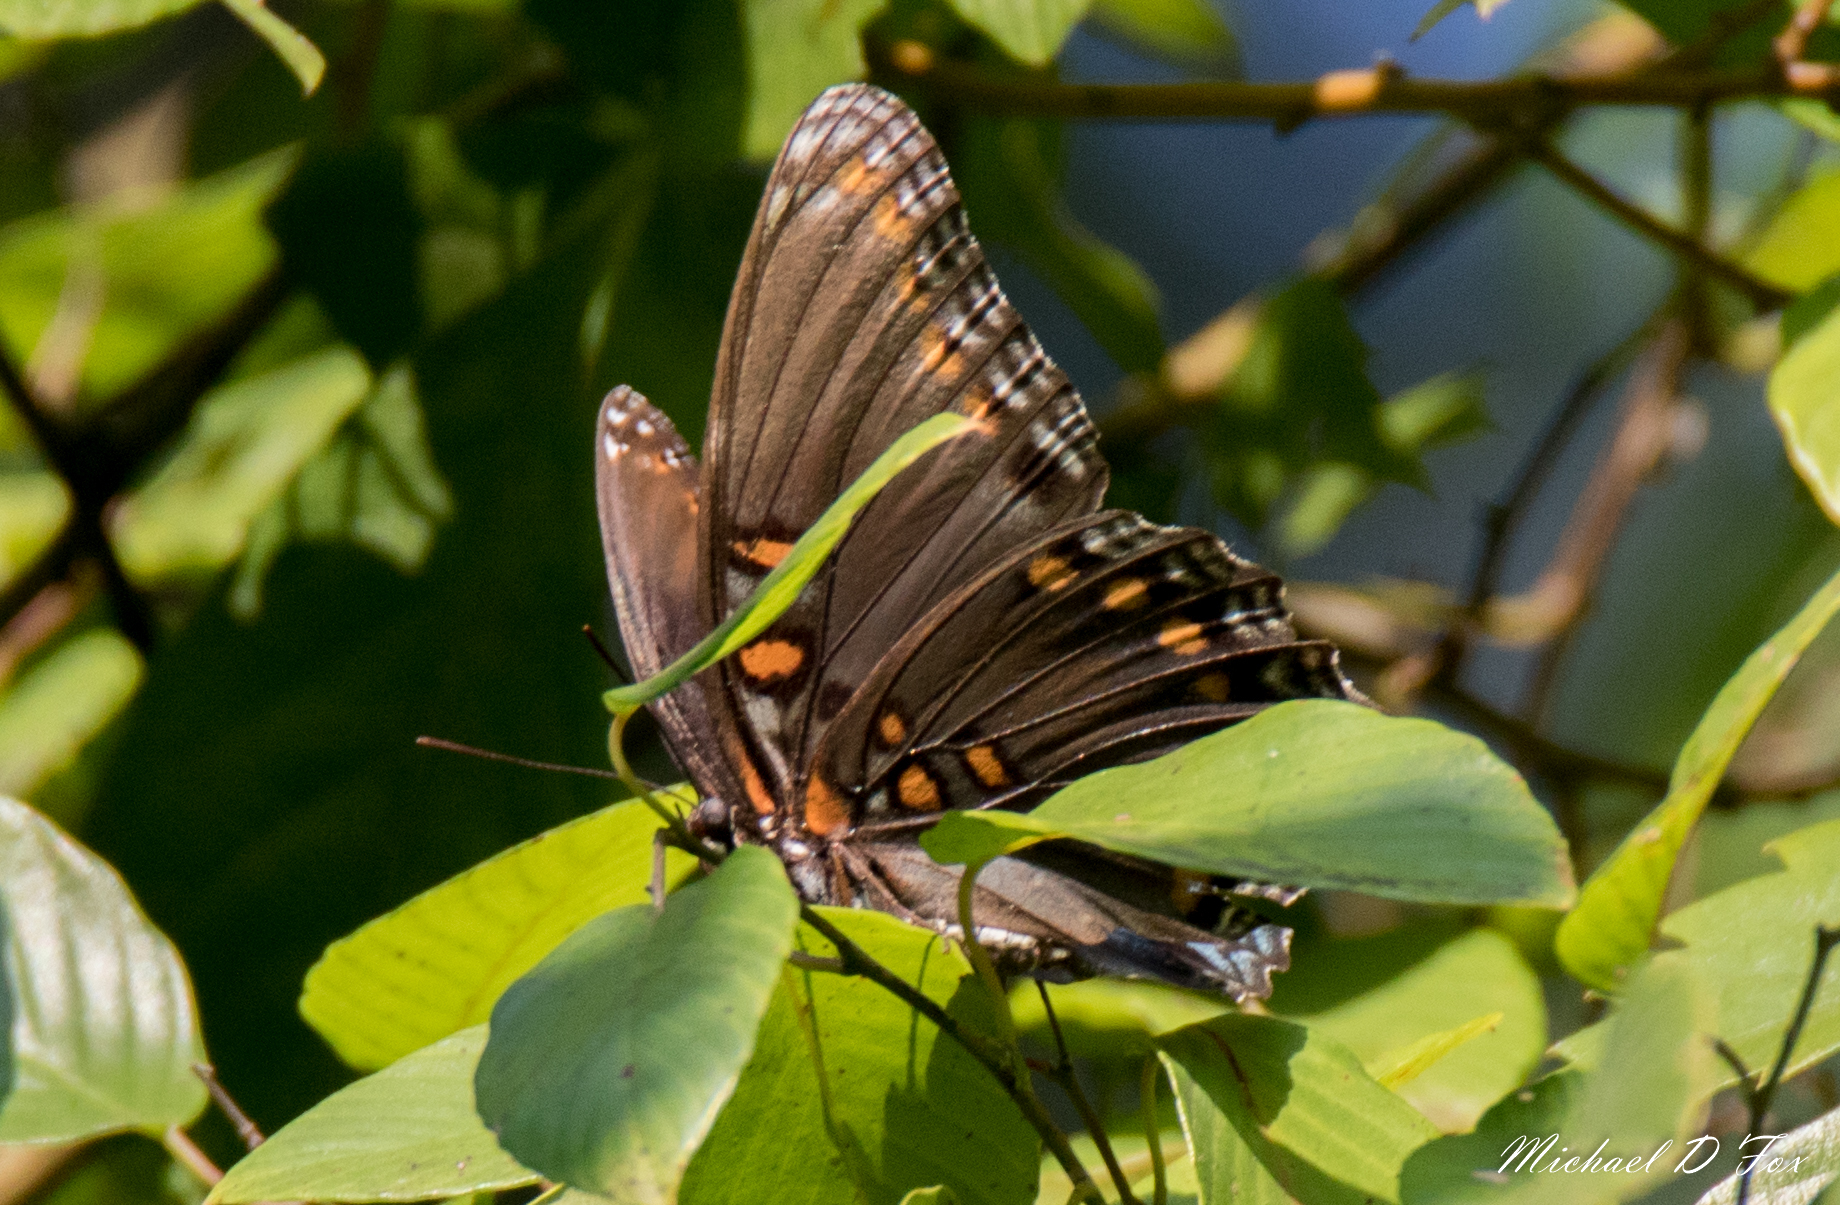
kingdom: Animalia
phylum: Arthropoda
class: Insecta
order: Lepidoptera
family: Nymphalidae
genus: Limenitis
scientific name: Limenitis astyanax
